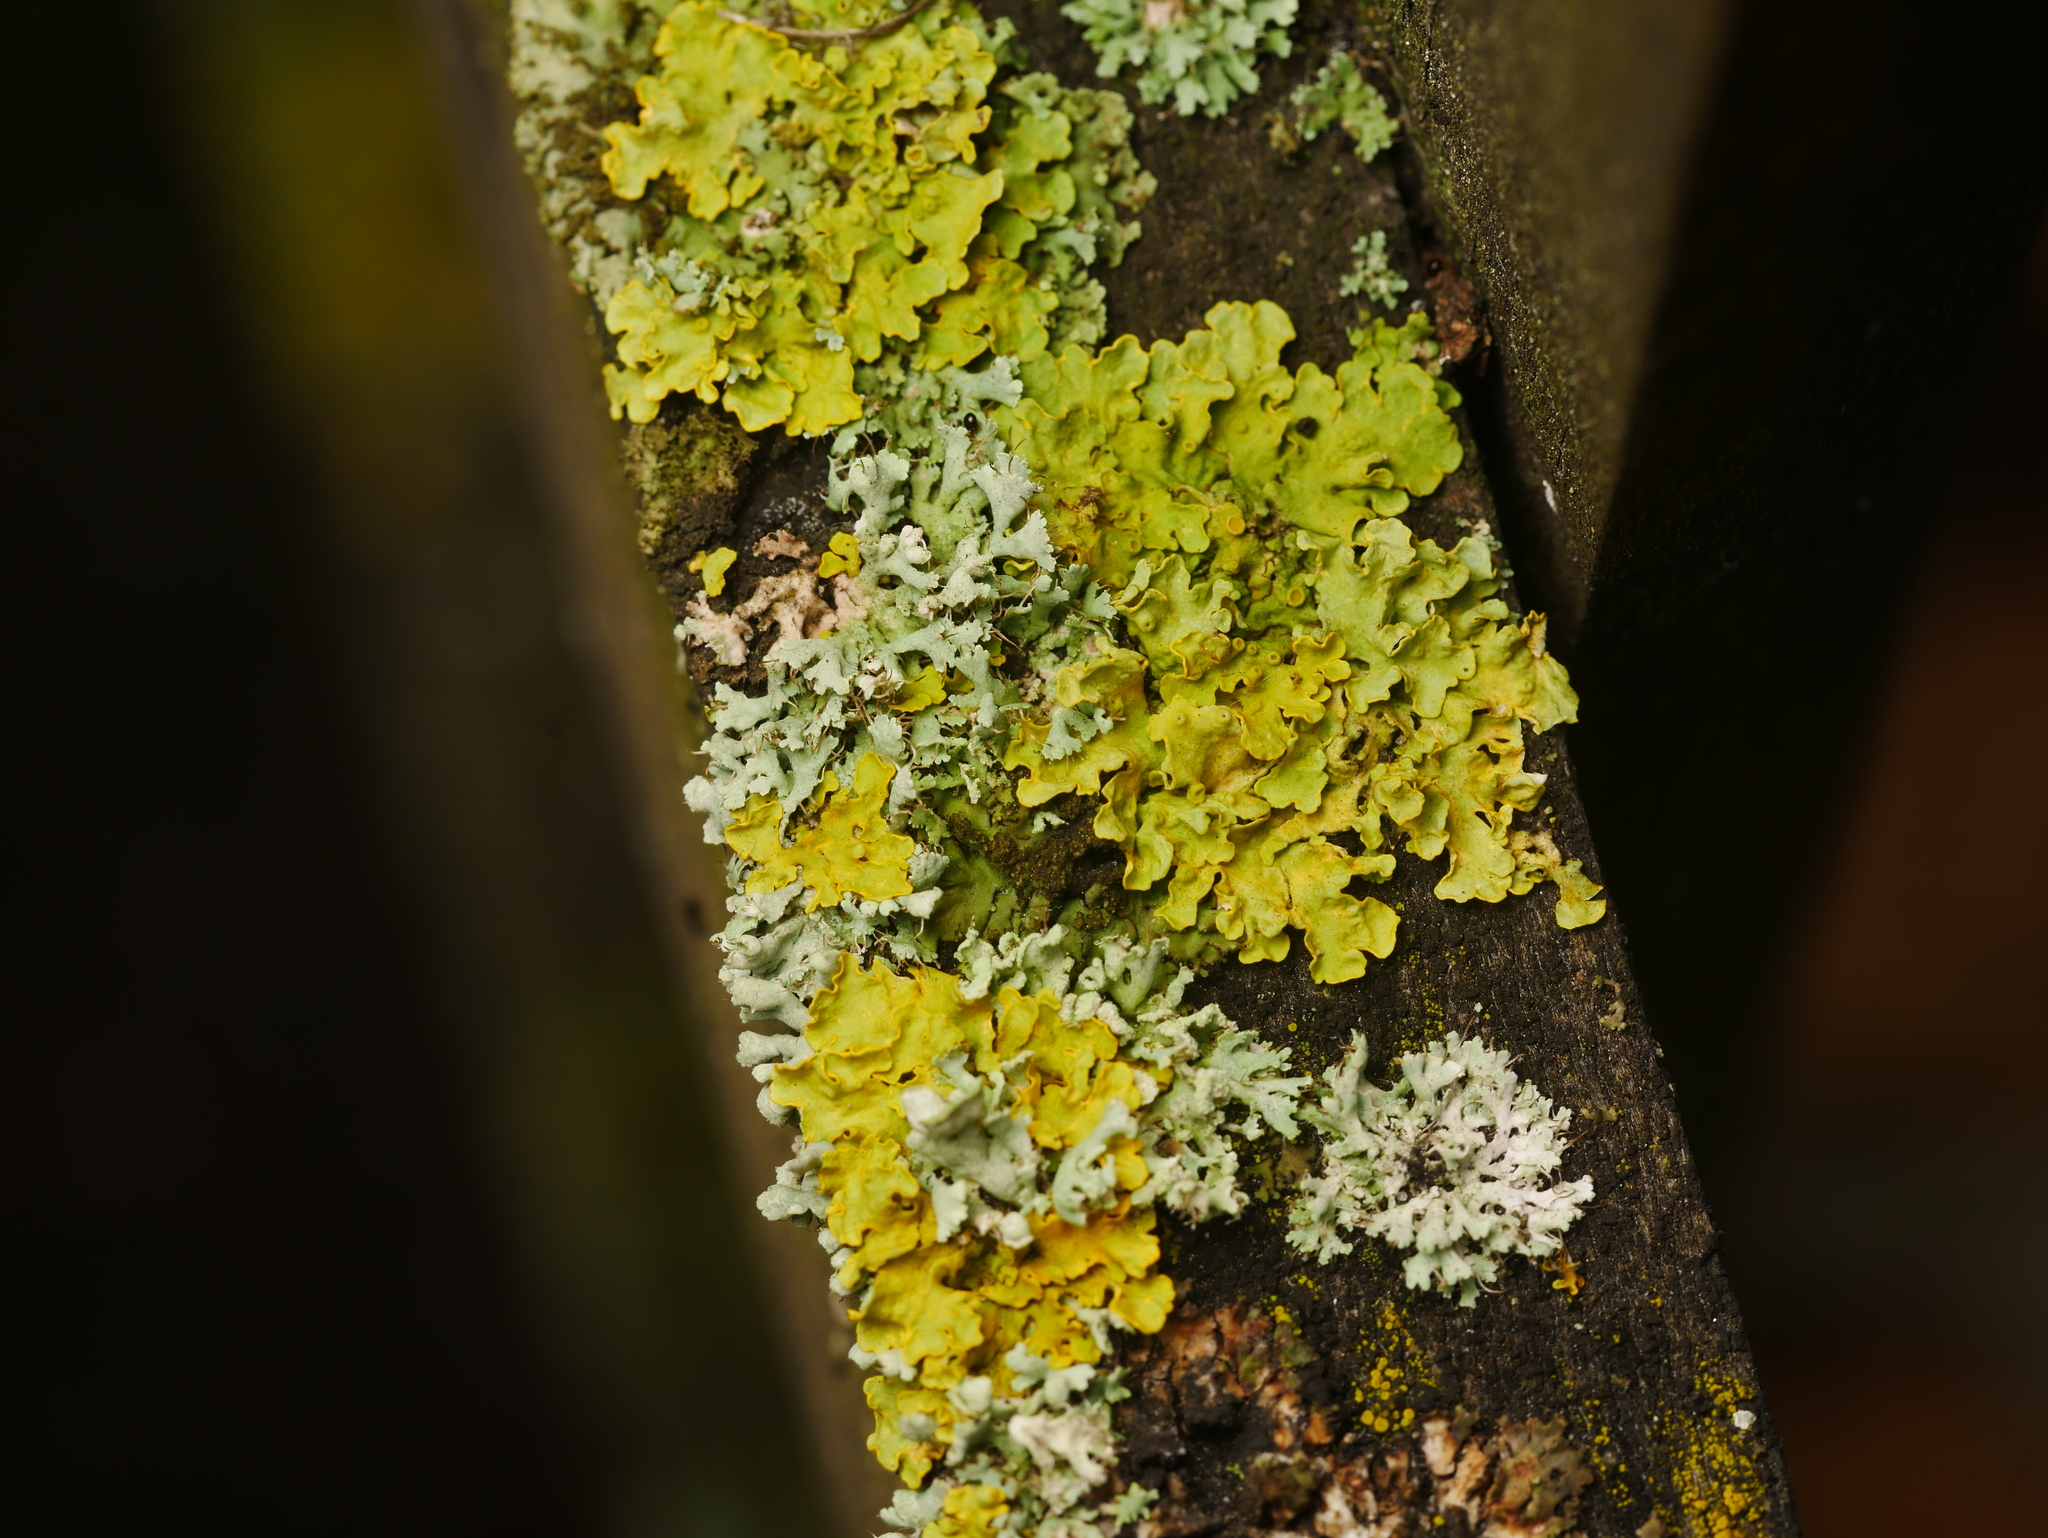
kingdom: Fungi
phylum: Ascomycota
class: Lecanoromycetes
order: Teloschistales
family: Teloschistaceae
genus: Xanthoria
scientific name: Xanthoria parietina
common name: Common orange lichen
